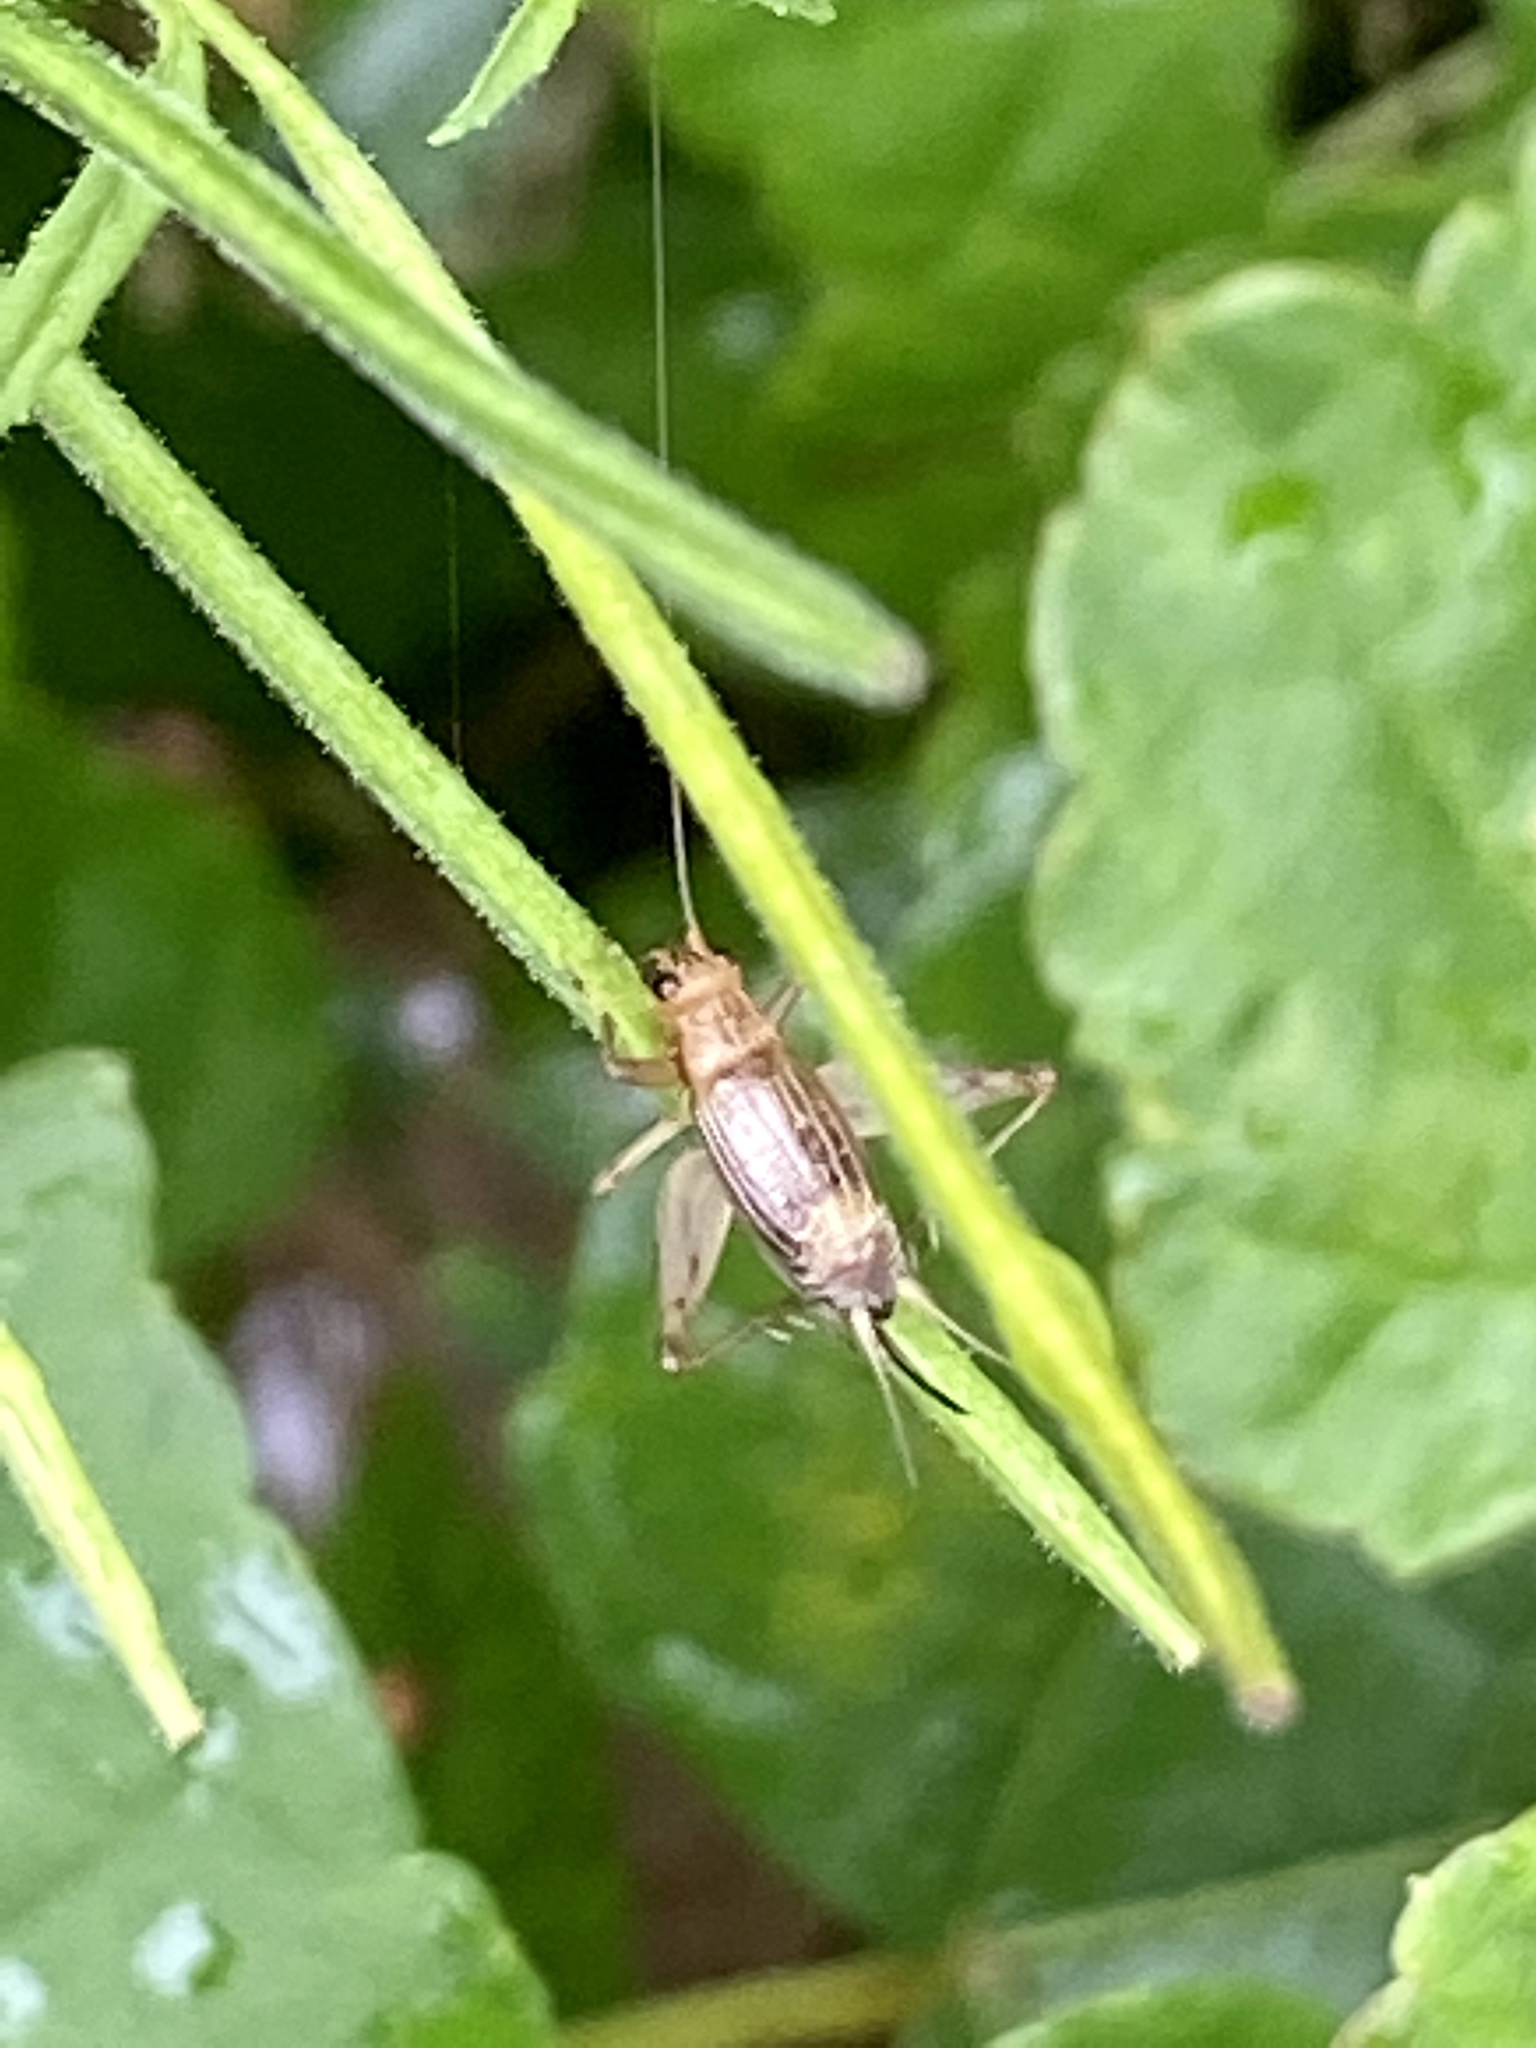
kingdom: Animalia
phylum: Arthropoda
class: Insecta
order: Orthoptera
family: Trigonidiidae
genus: Anaxipha
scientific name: Anaxipha exigua
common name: Say's bush cricket
